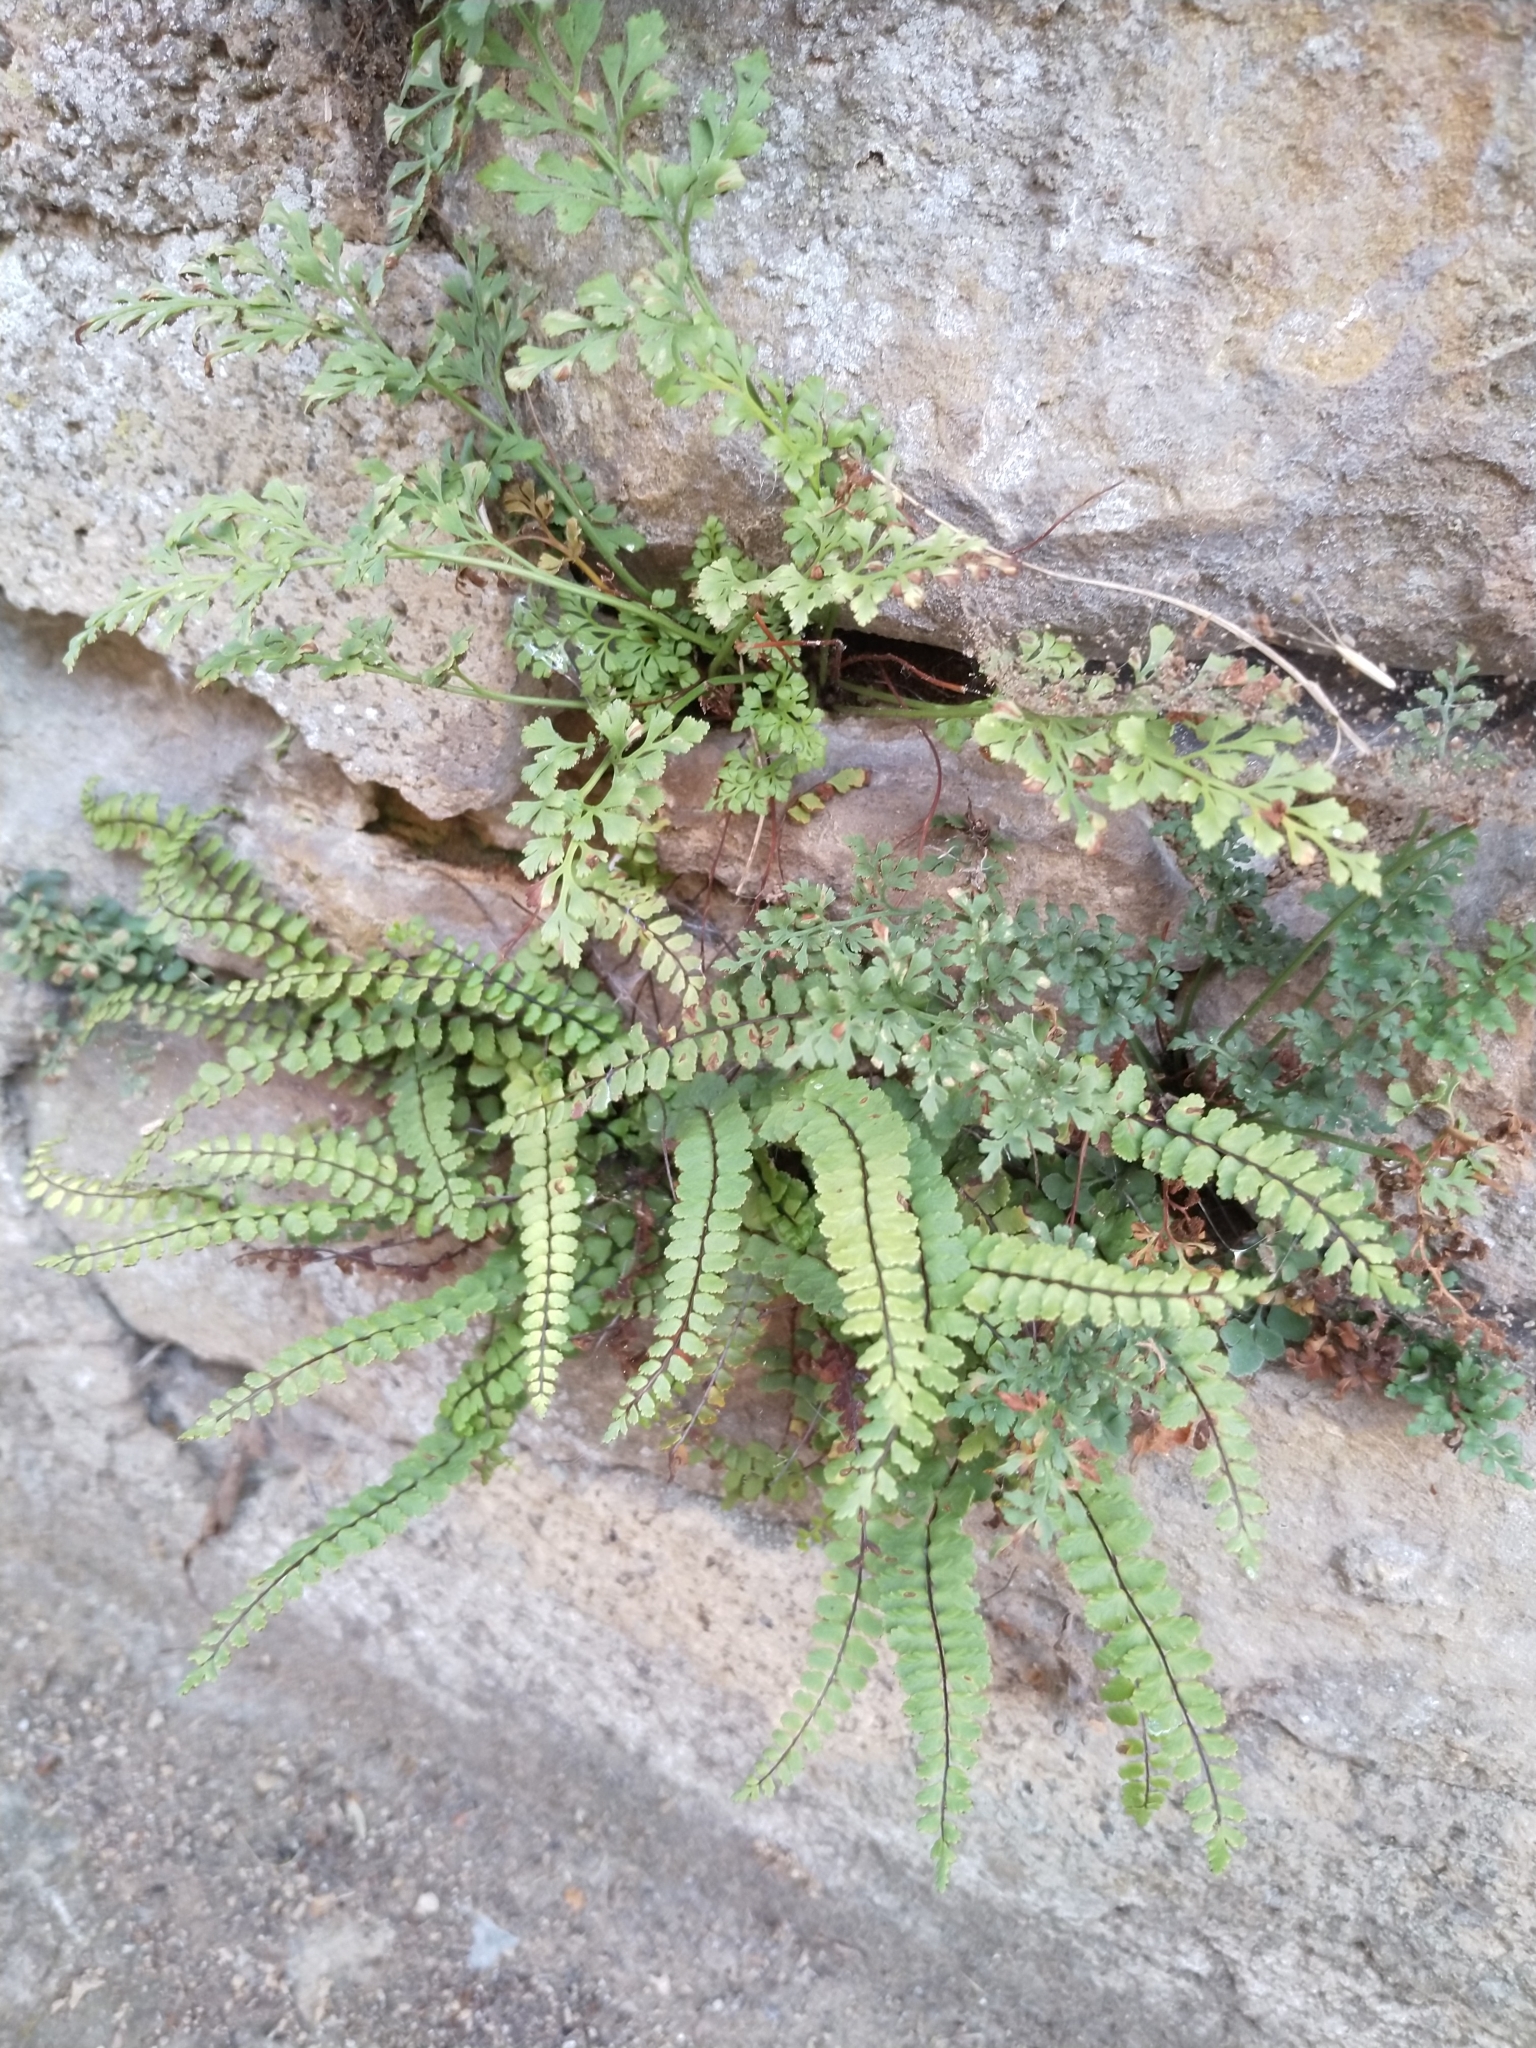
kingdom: Plantae
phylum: Tracheophyta
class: Polypodiopsida
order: Polypodiales
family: Aspleniaceae
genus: Asplenium
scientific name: Asplenium trichomanes
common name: Maidenhair spleenwort
